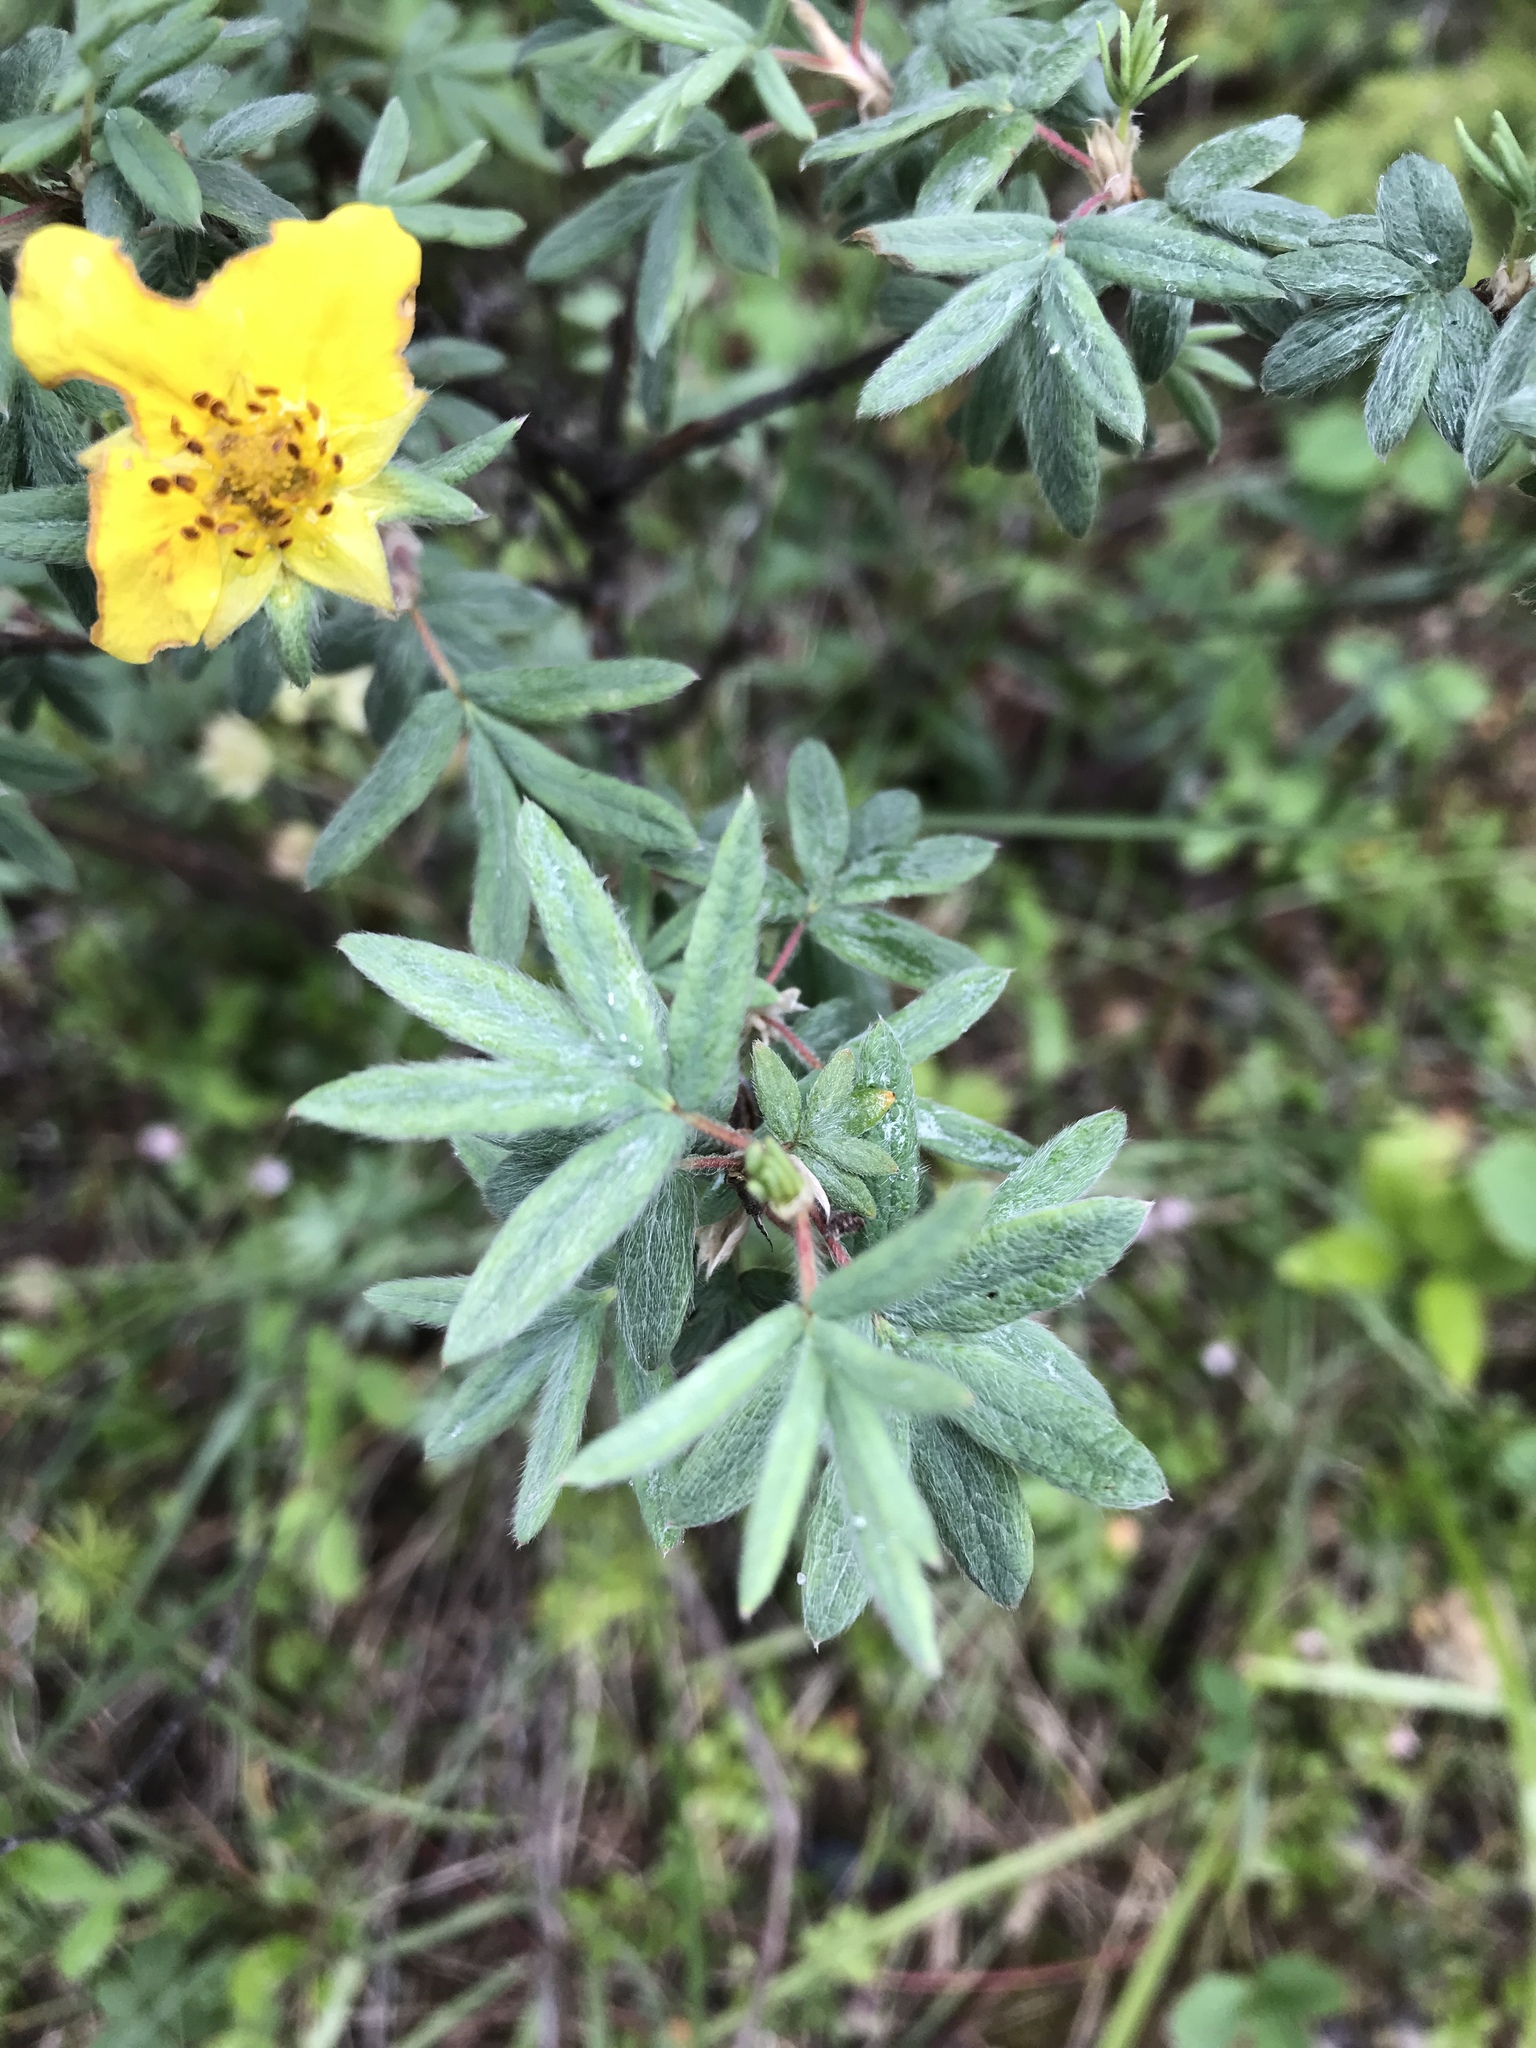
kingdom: Plantae
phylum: Tracheophyta
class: Magnoliopsida
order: Rosales
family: Rosaceae
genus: Dasiphora
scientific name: Dasiphora fruticosa
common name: Shrubby cinquefoil
